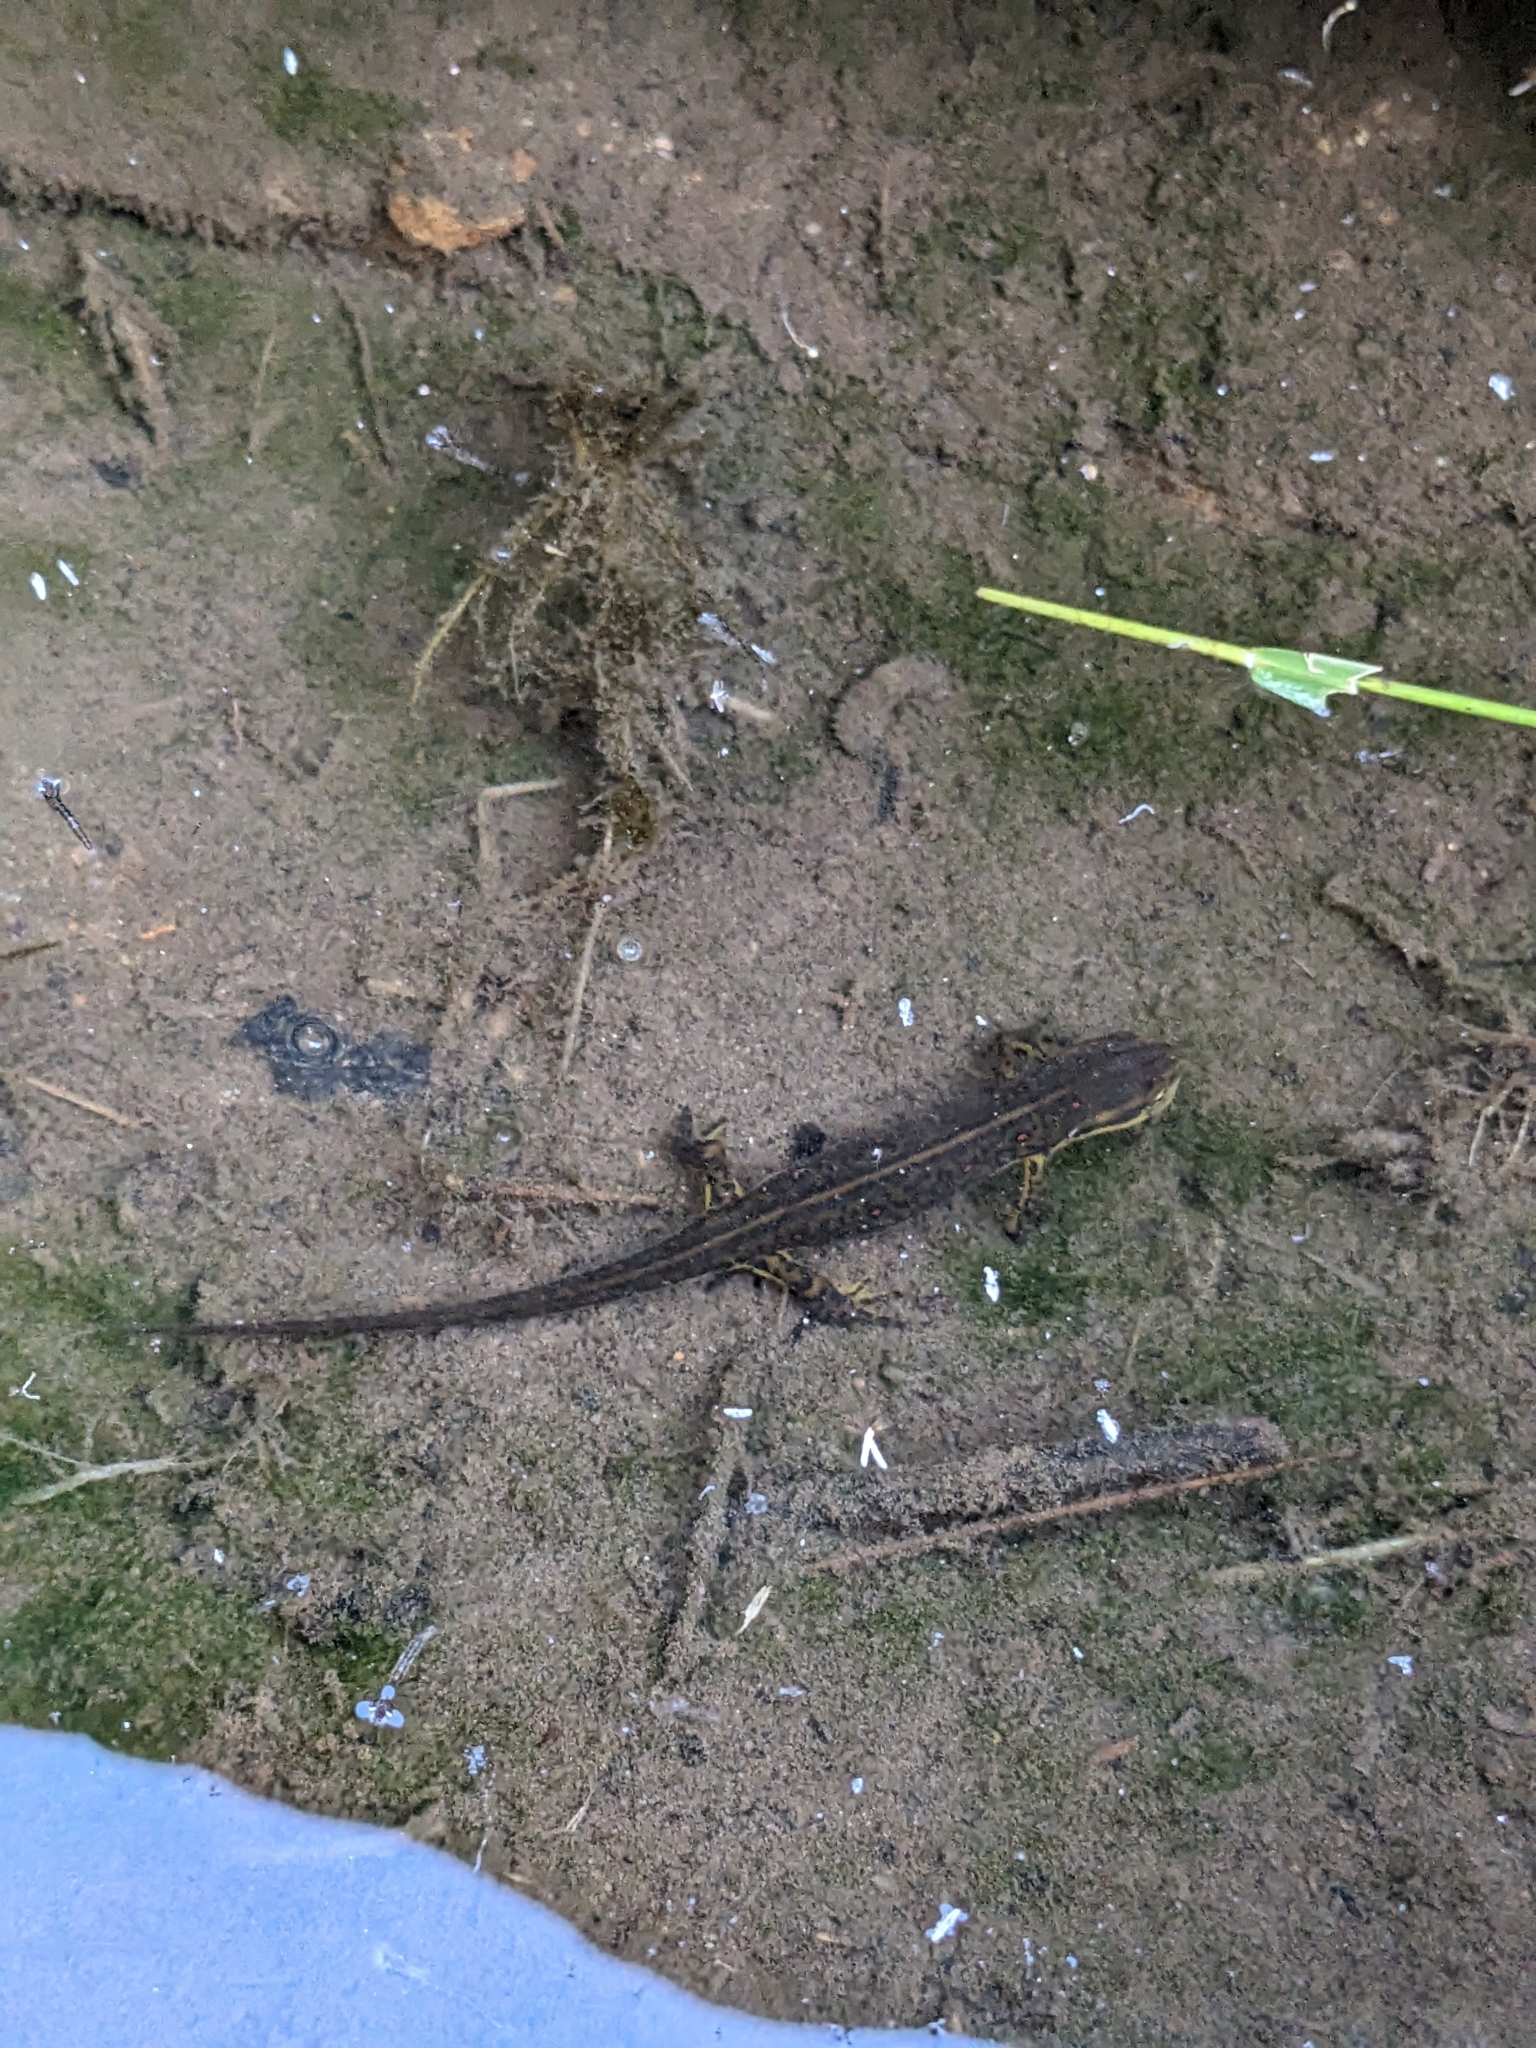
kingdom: Animalia
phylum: Chordata
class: Amphibia
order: Caudata
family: Salamandridae
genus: Notophthalmus
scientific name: Notophthalmus viridescens
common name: Eastern newt
